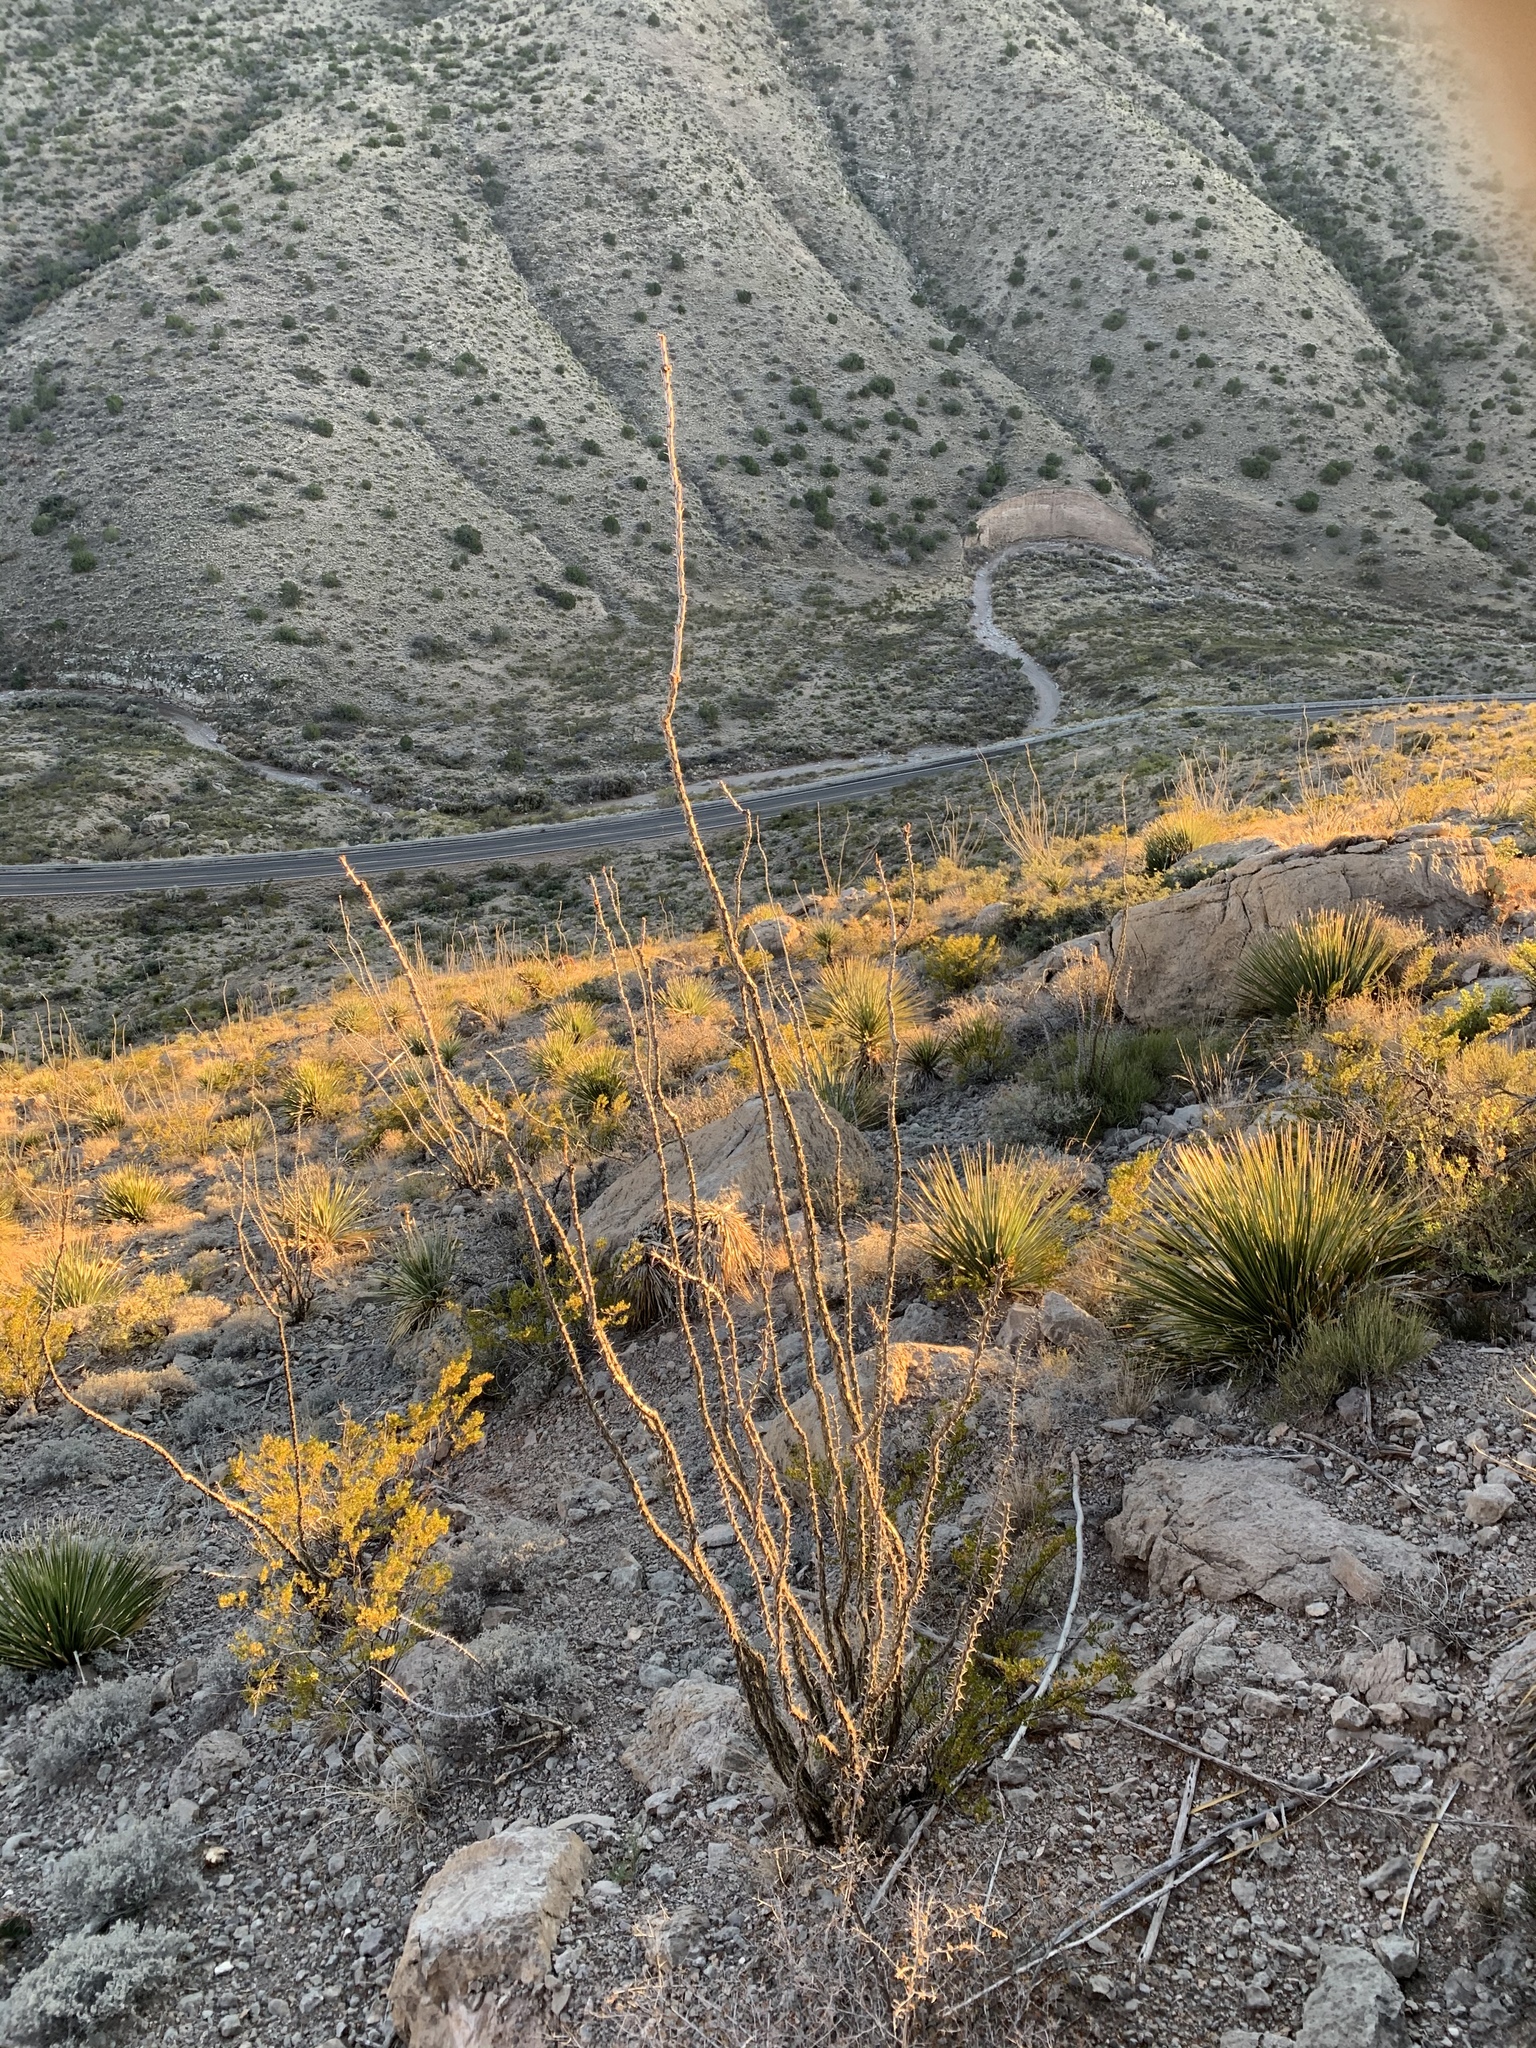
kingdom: Plantae
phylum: Tracheophyta
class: Magnoliopsida
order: Ericales
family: Fouquieriaceae
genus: Fouquieria
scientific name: Fouquieria splendens
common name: Vine-cactus
